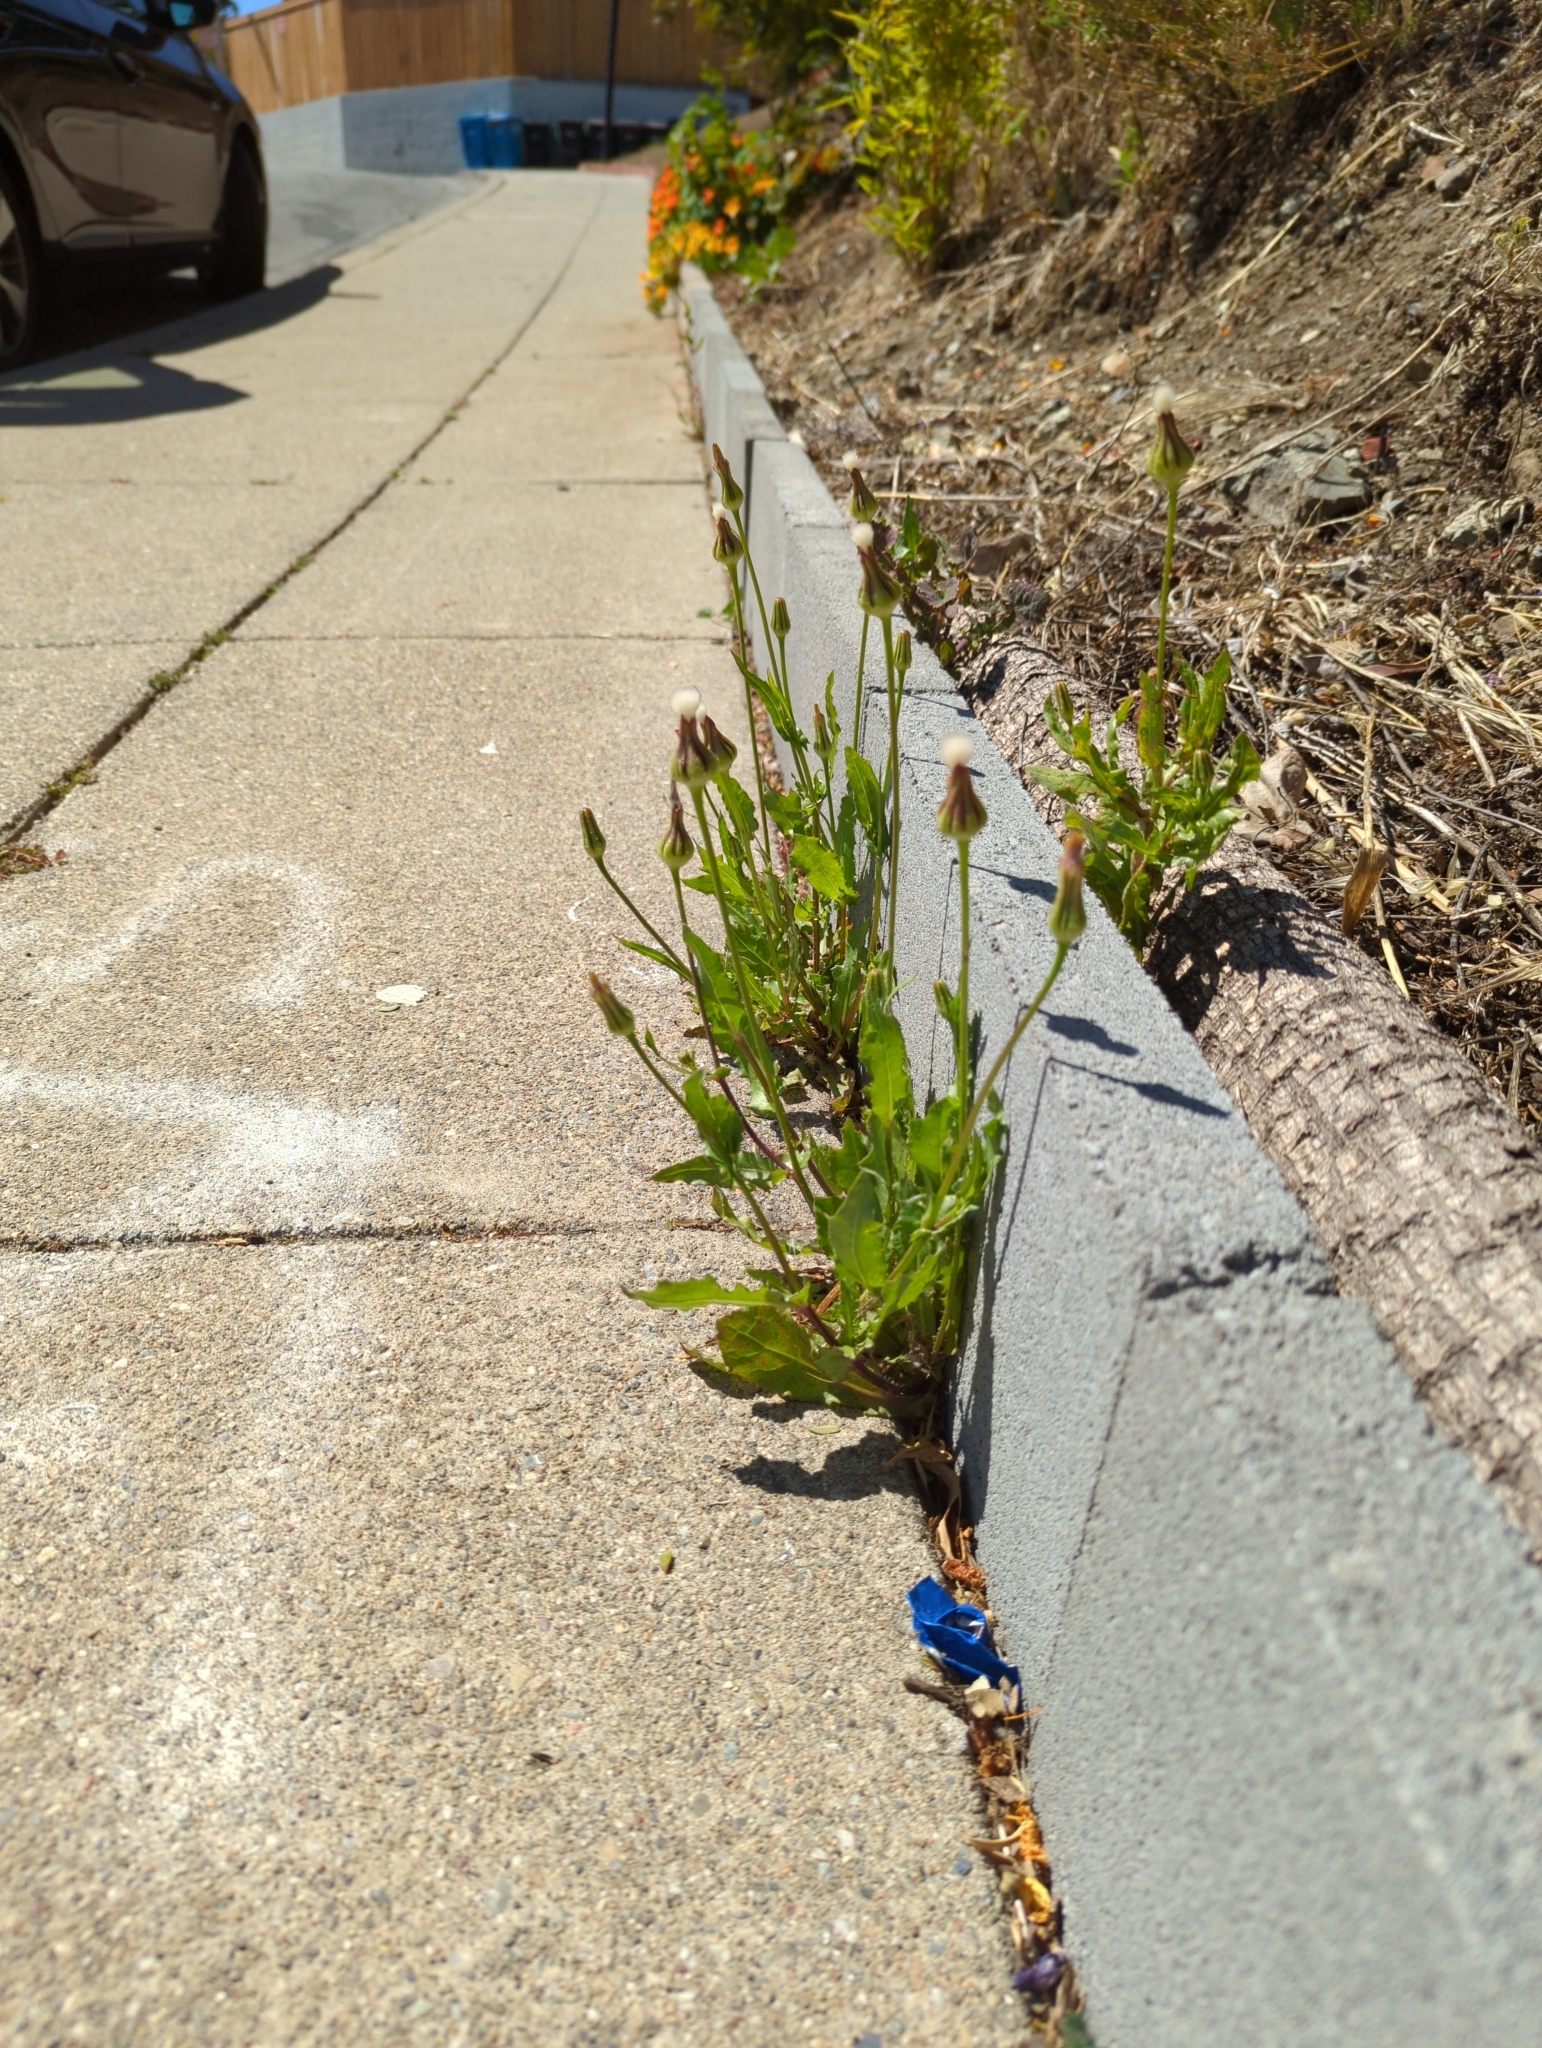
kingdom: Plantae
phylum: Tracheophyta
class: Magnoliopsida
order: Asterales
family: Asteraceae
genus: Urospermum
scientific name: Urospermum picroides
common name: False hawkbit
